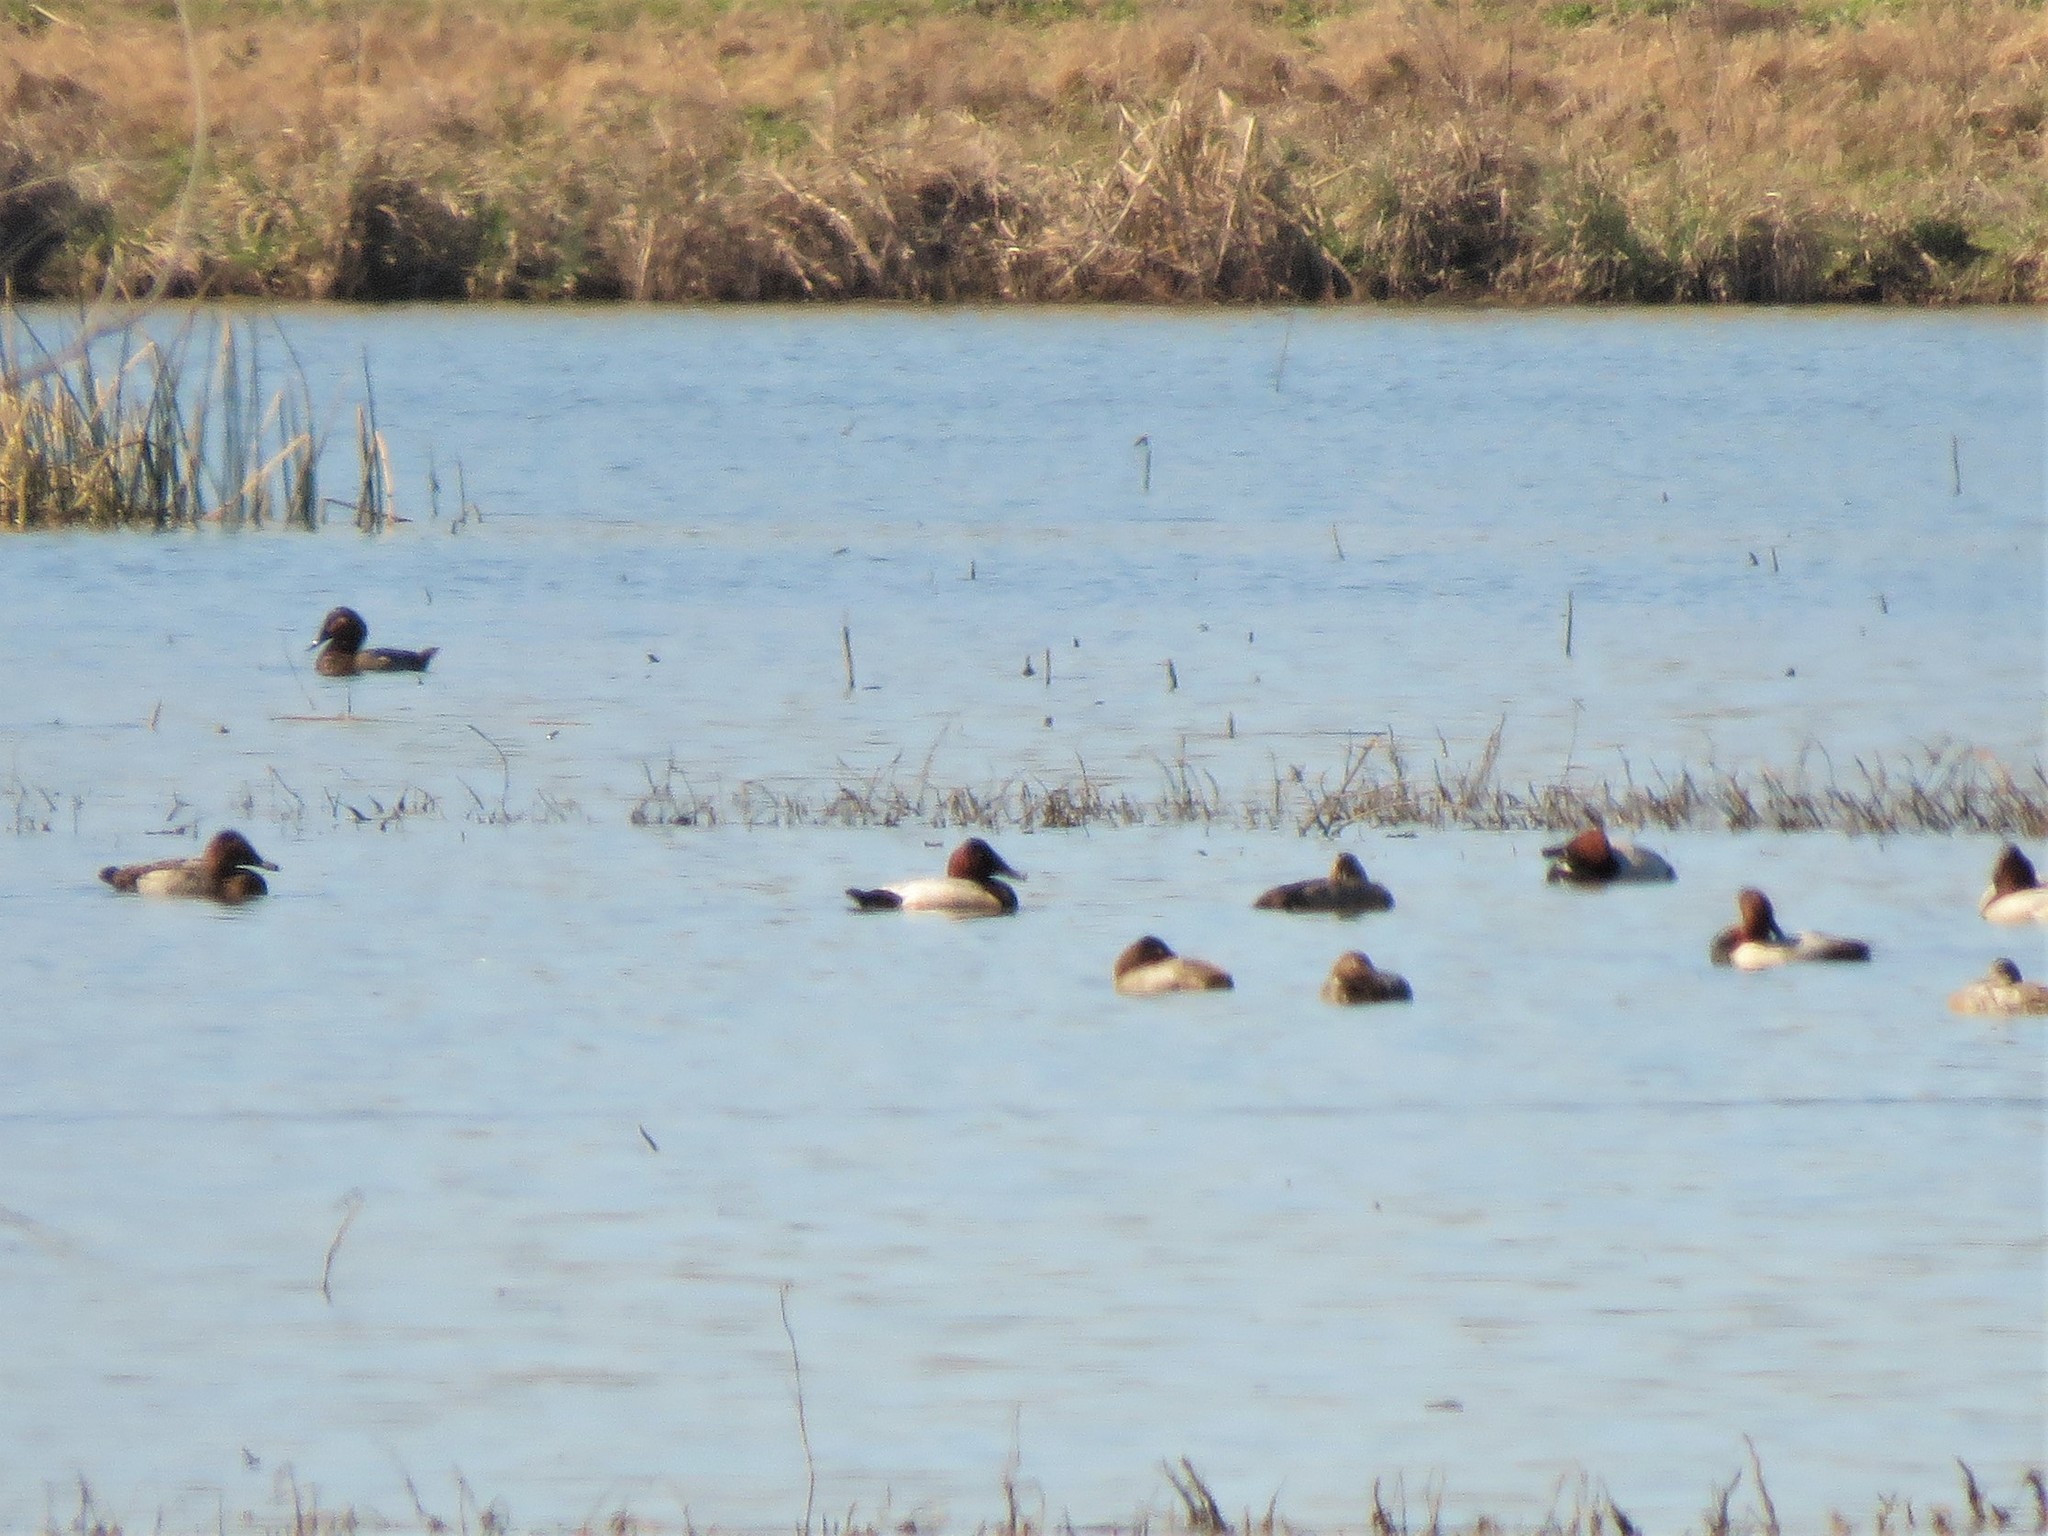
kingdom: Animalia
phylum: Chordata
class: Aves
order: Anseriformes
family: Anatidae
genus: Aythya
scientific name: Aythya valisineria
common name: Canvasback
